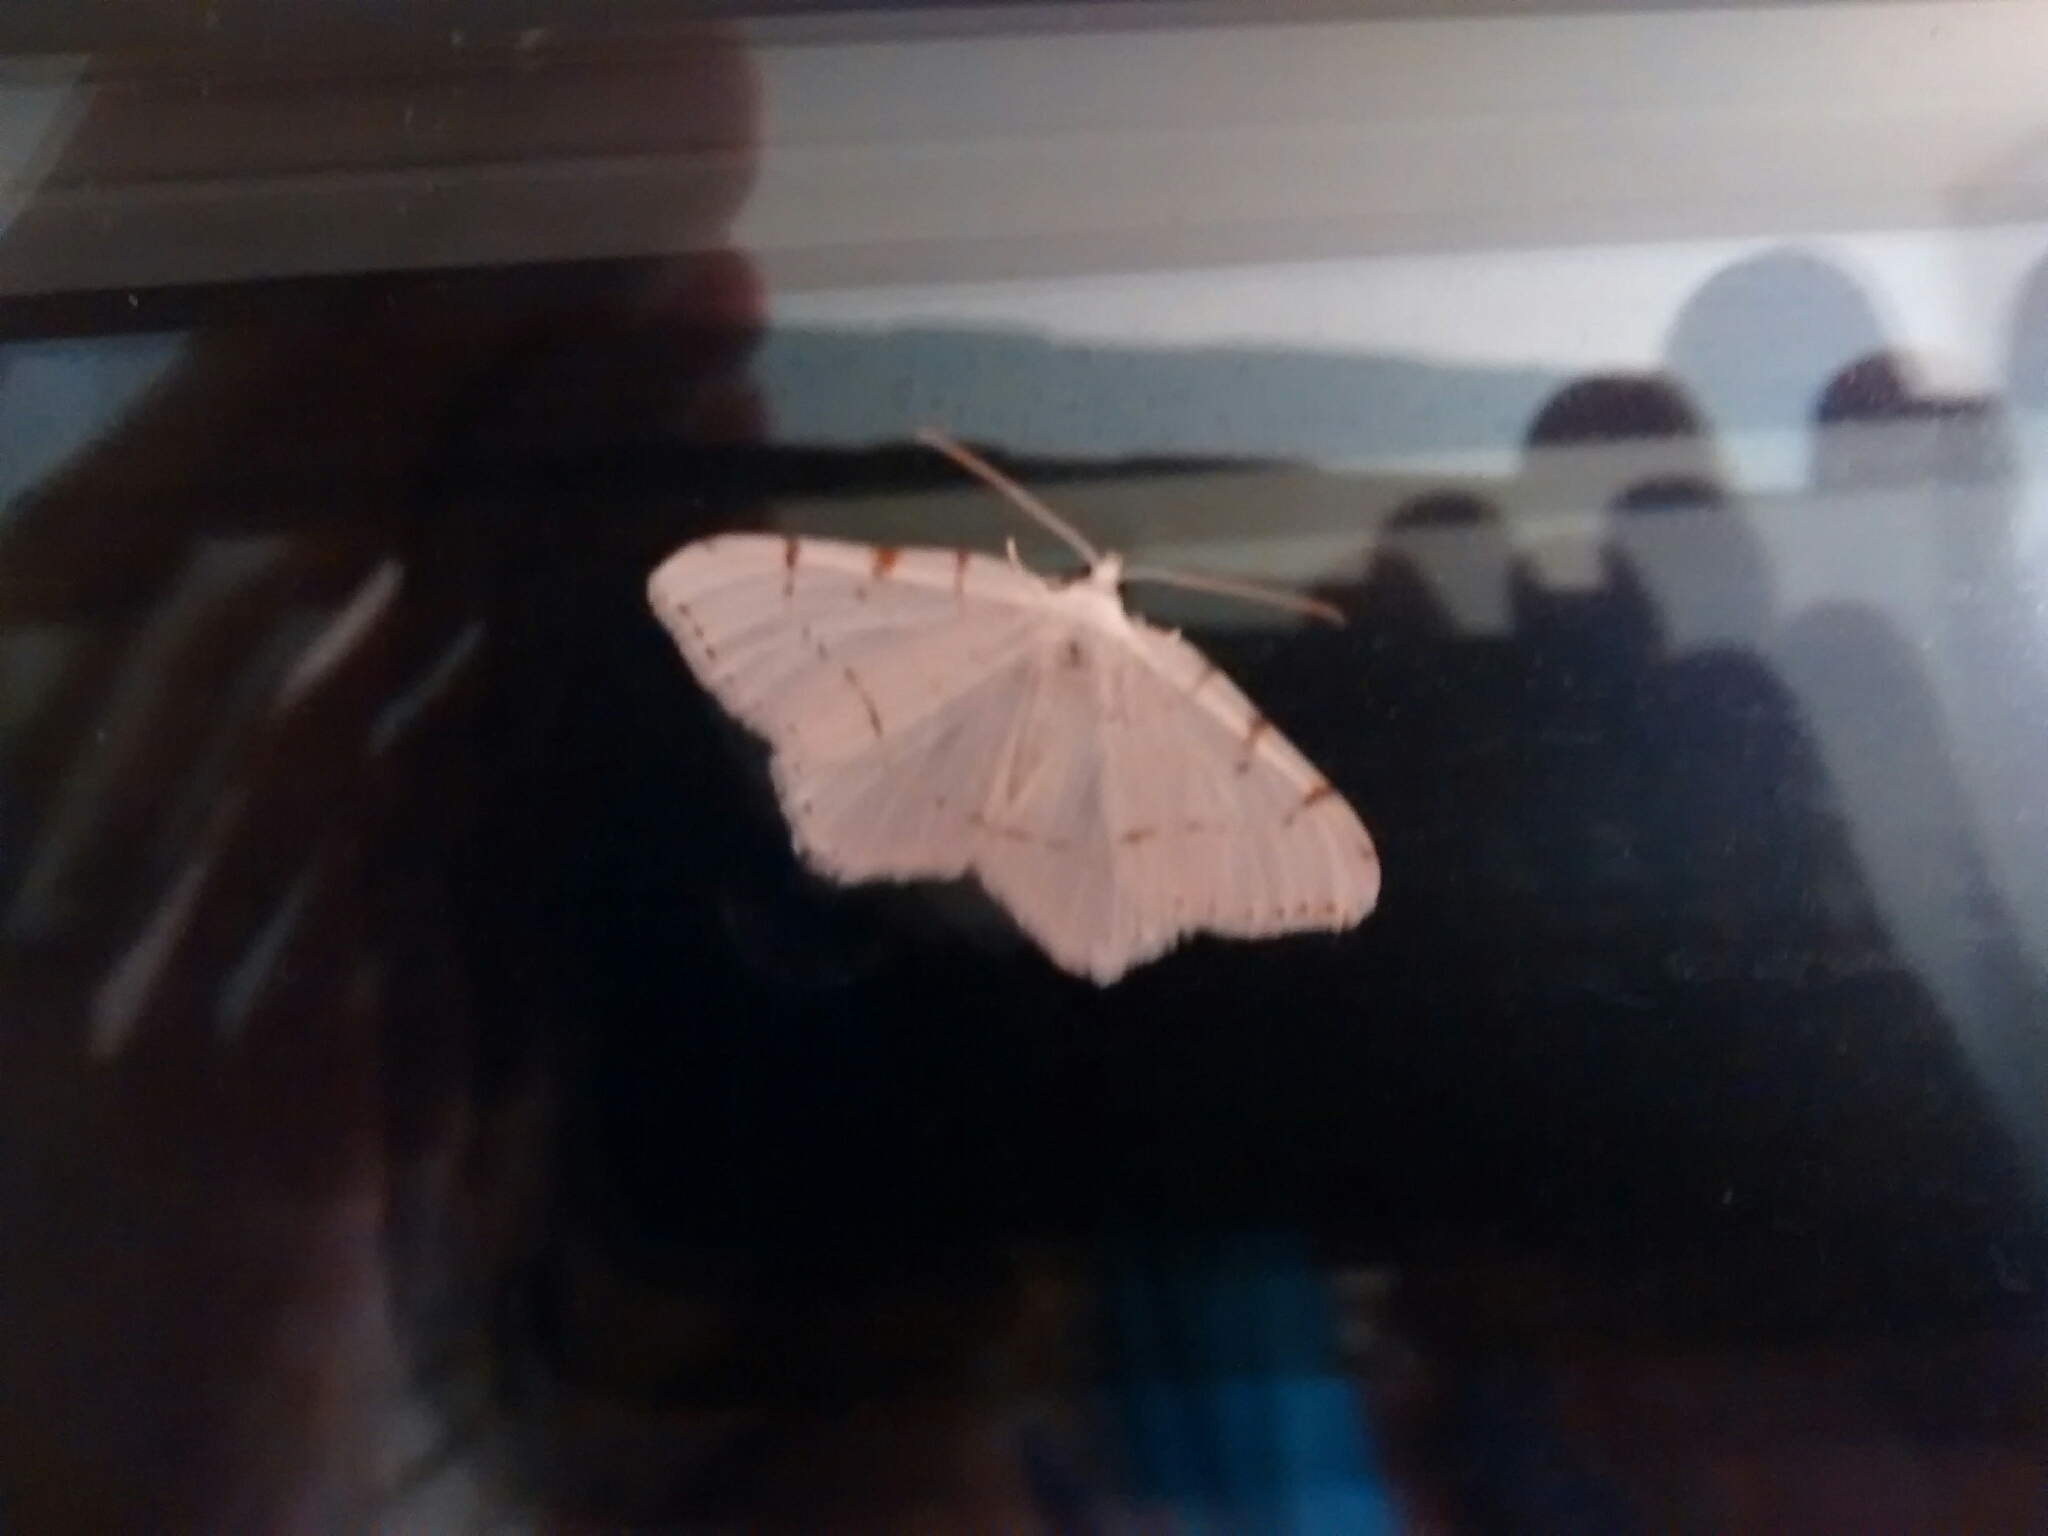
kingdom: Animalia
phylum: Arthropoda
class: Insecta
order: Lepidoptera
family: Geometridae
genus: Macaria
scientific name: Macaria pustularia
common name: Lesser maple spanworm moth
